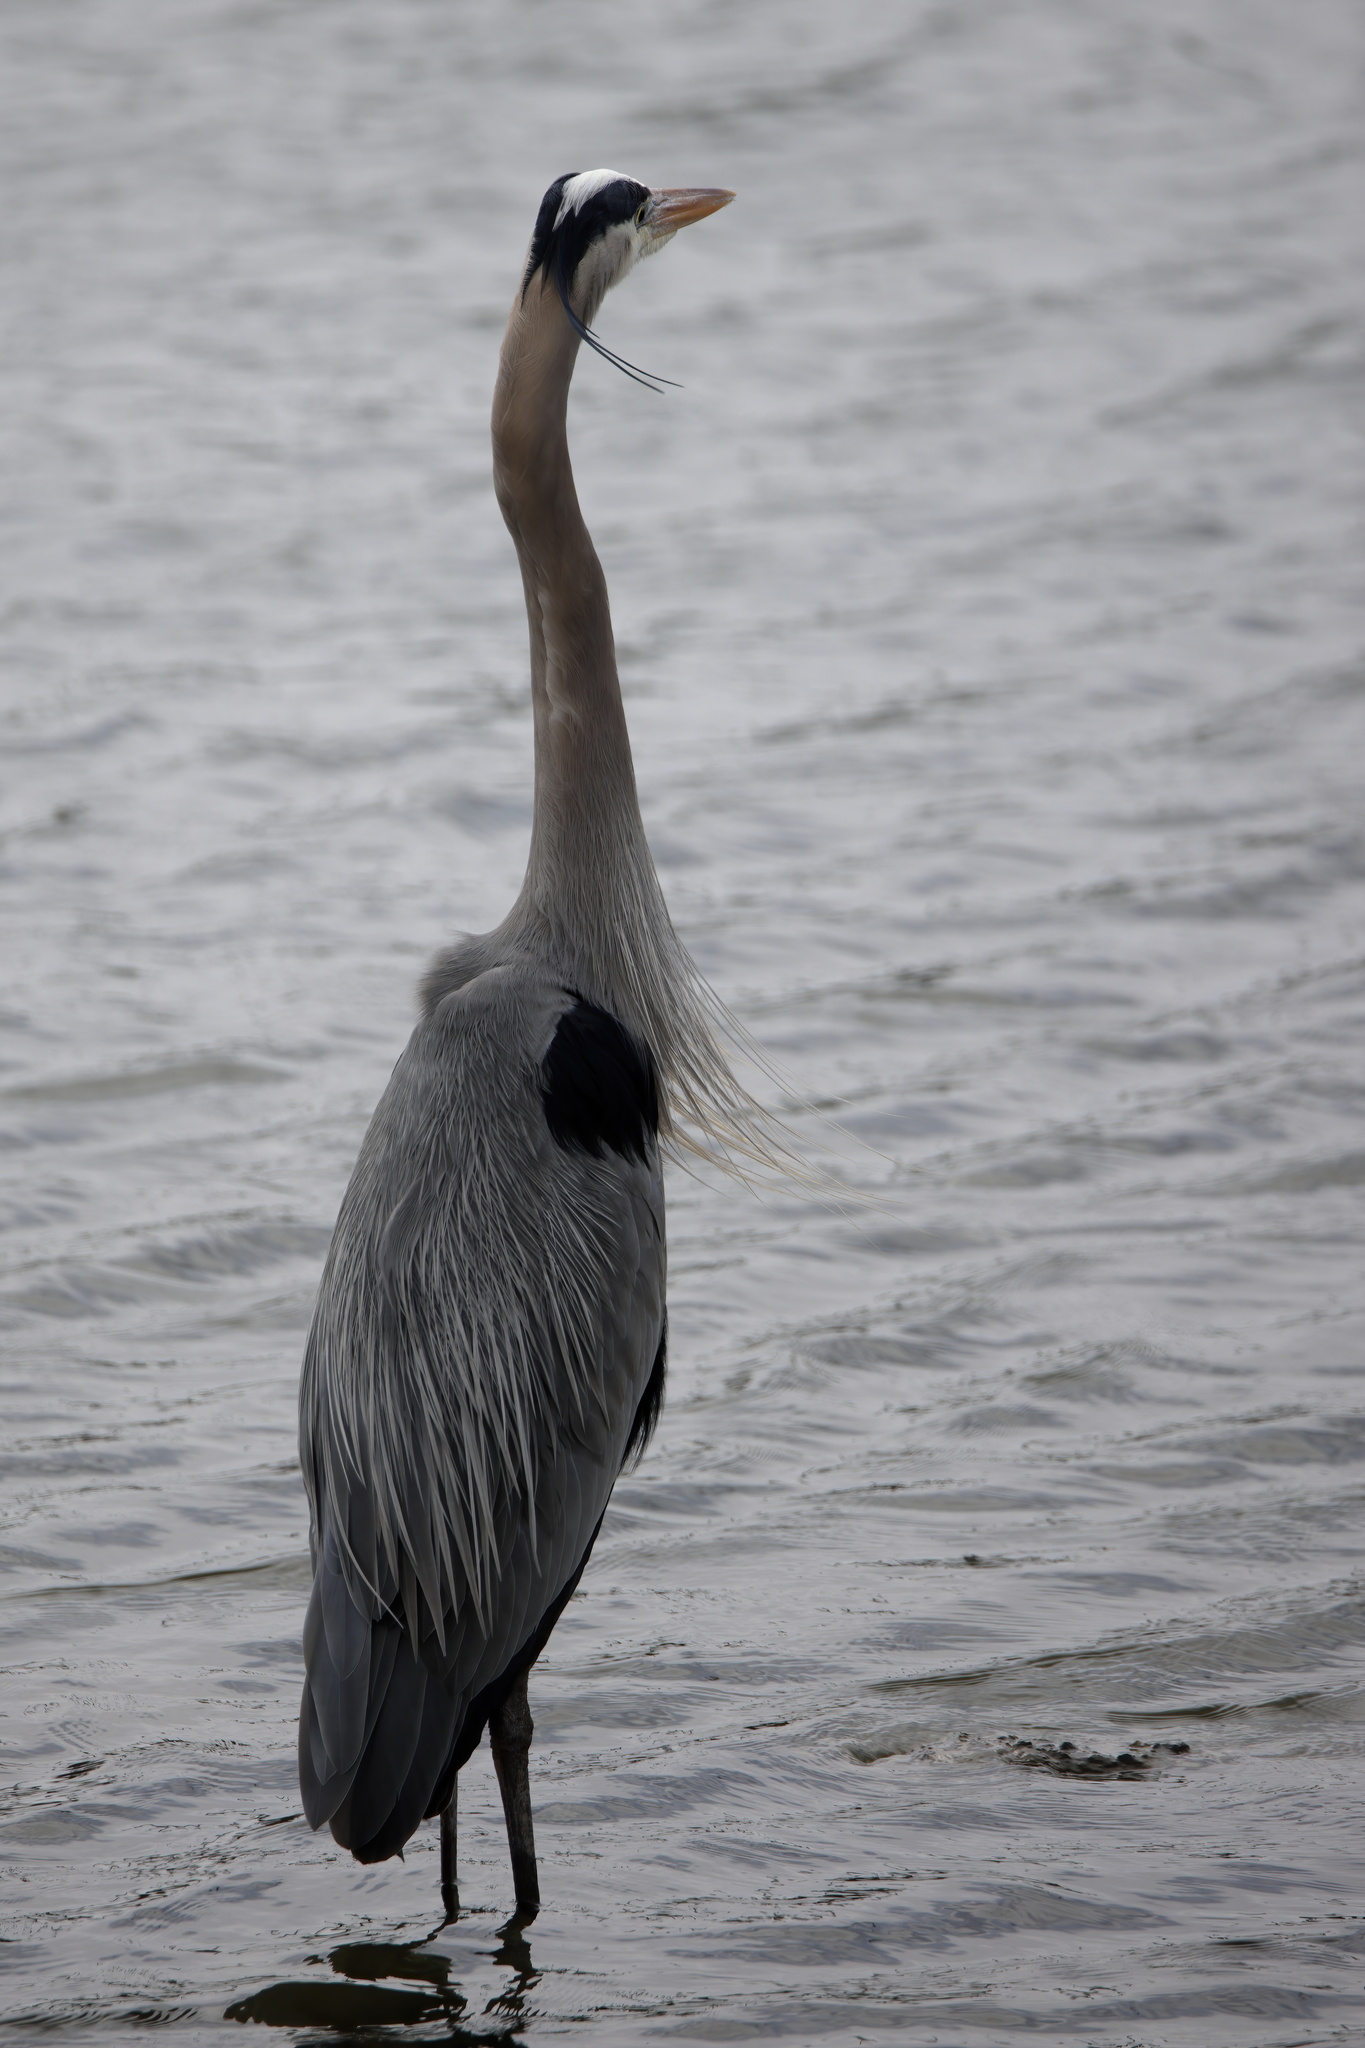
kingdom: Animalia
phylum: Chordata
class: Aves
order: Pelecaniformes
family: Ardeidae
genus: Ardea
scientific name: Ardea herodias
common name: Great blue heron
